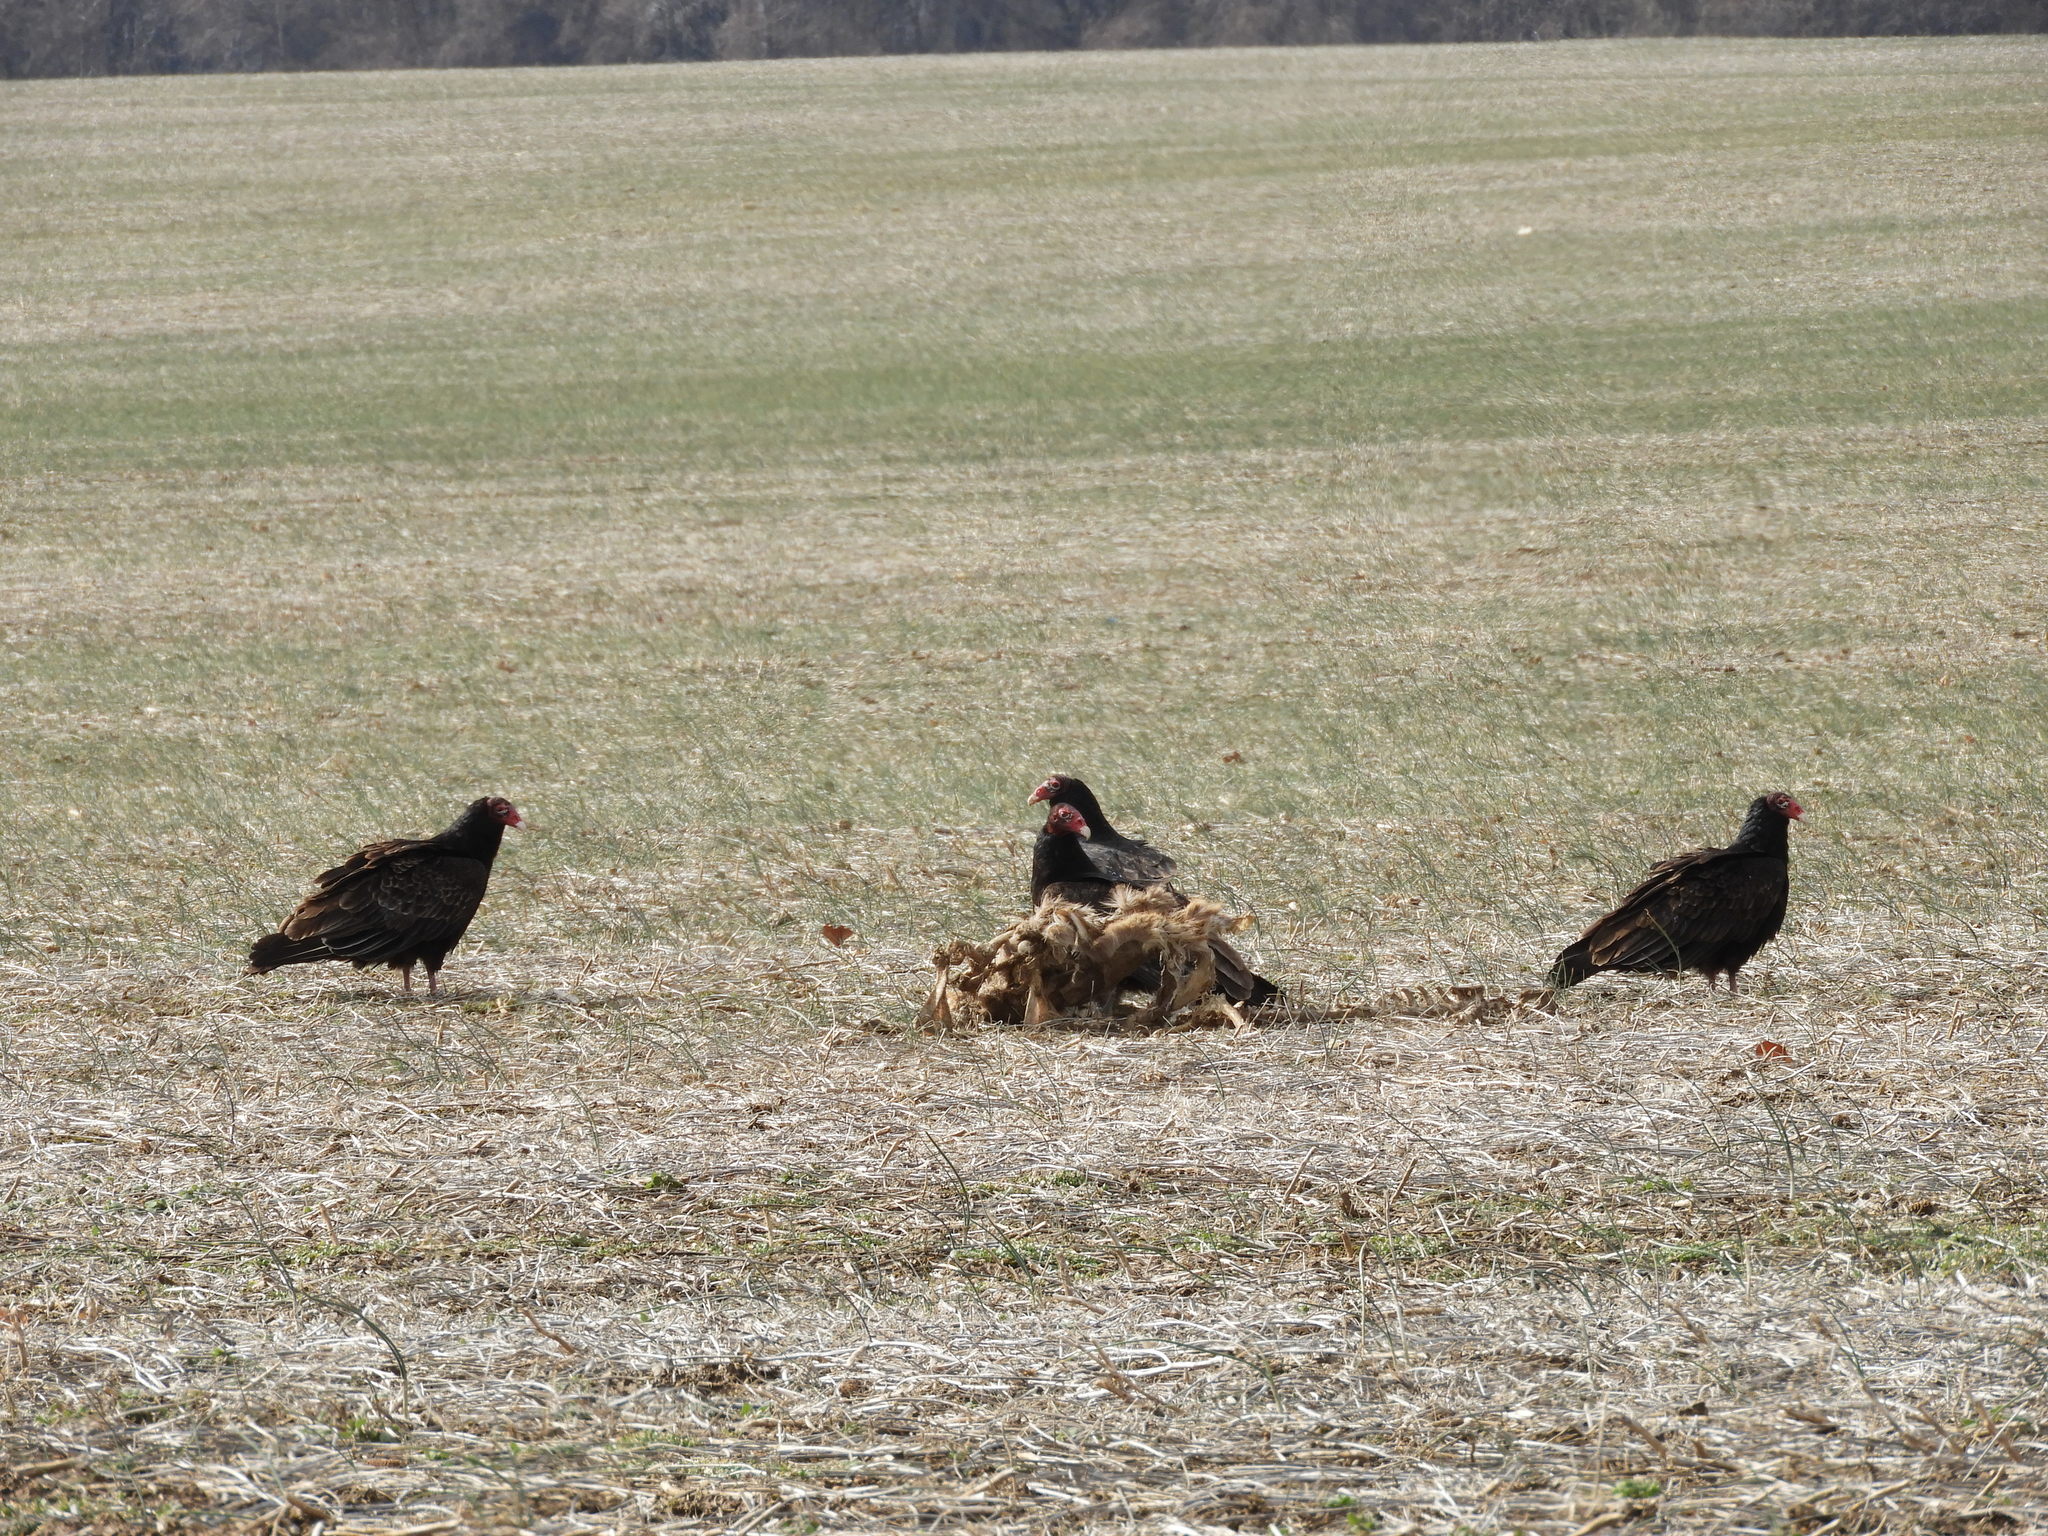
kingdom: Animalia
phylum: Chordata
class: Aves
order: Accipitriformes
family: Cathartidae
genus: Cathartes
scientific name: Cathartes aura
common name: Turkey vulture
